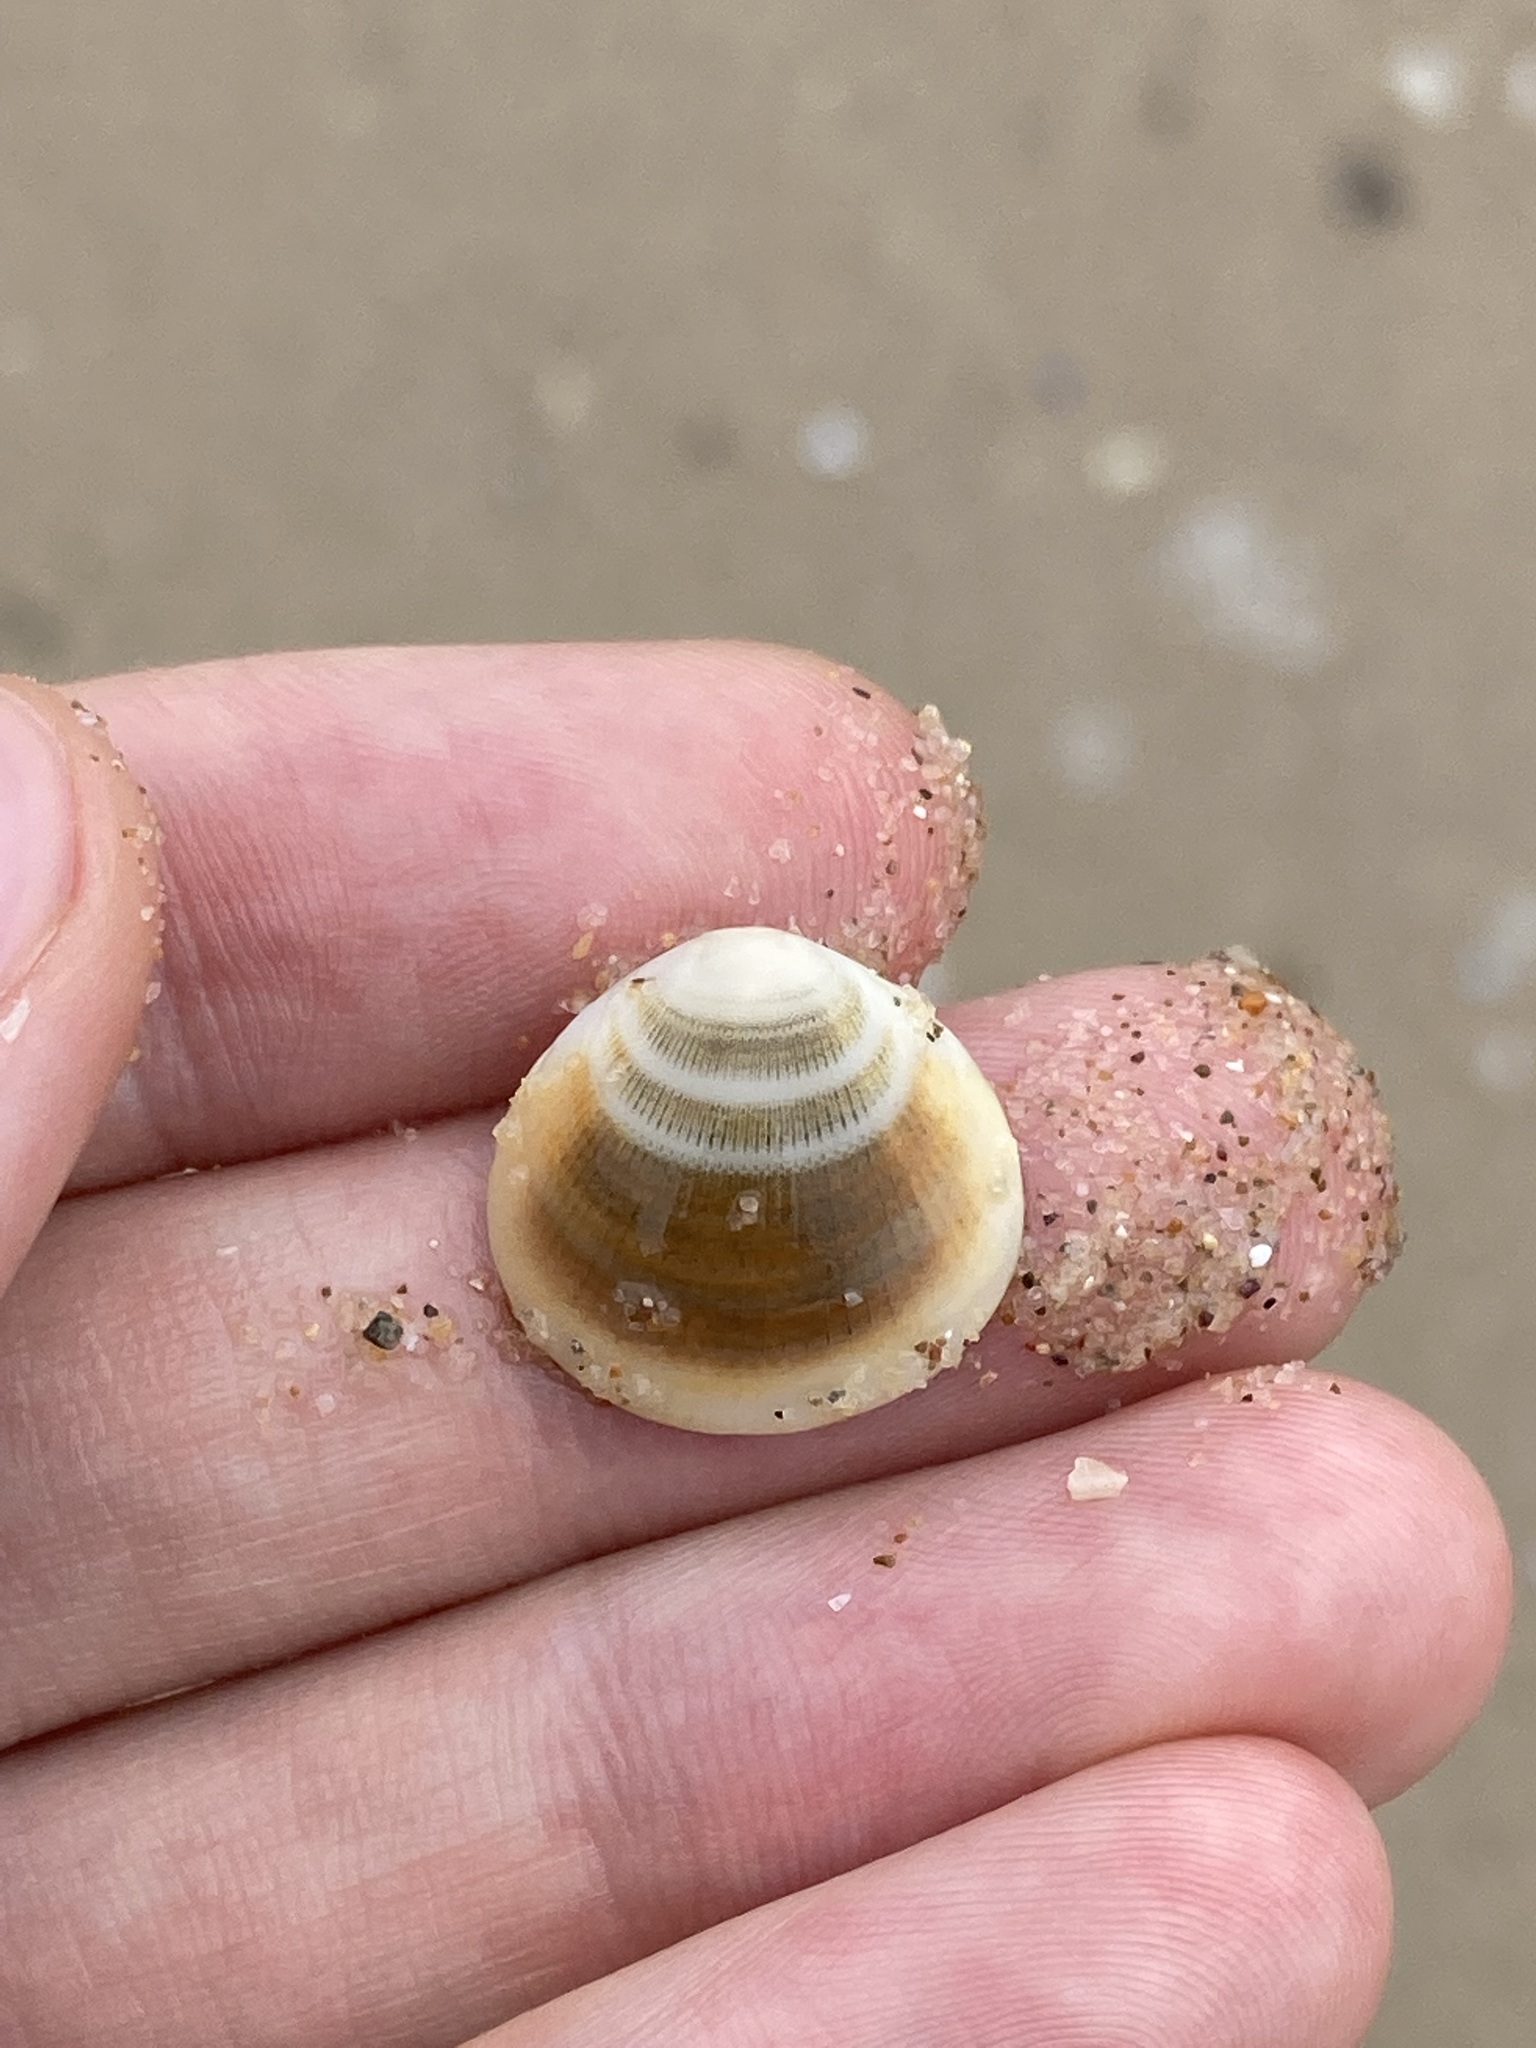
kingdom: Animalia
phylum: Mollusca
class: Bivalvia
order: Arcida
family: Glycymerididae
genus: Glycymeris
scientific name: Glycymeris grayana
